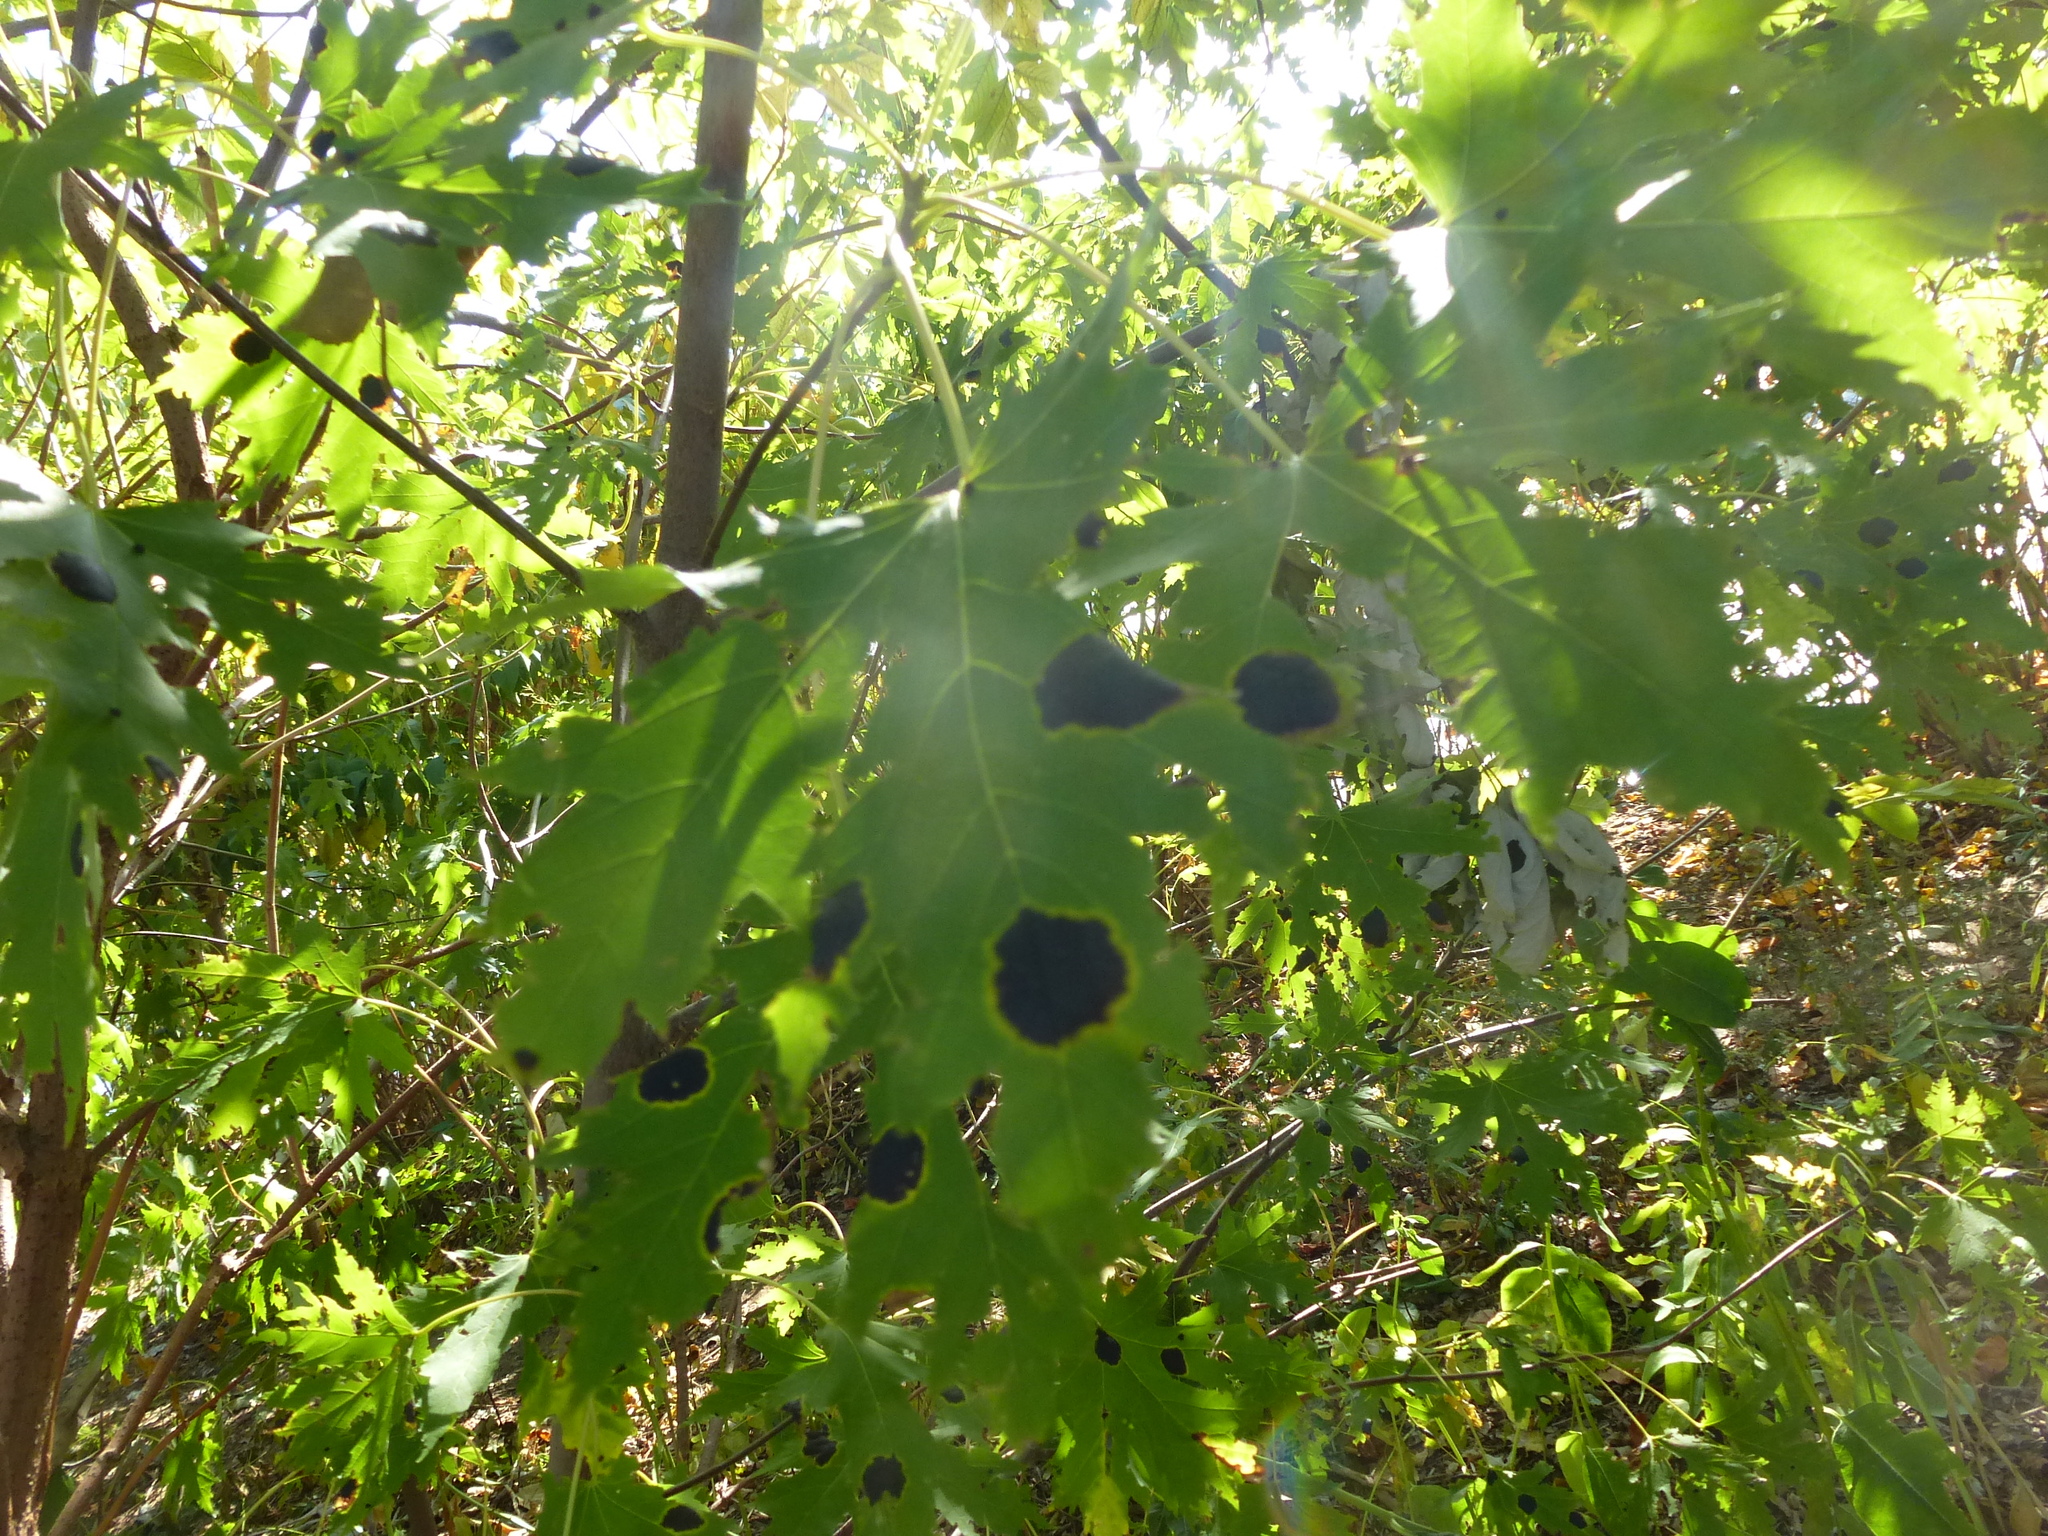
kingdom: Fungi
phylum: Ascomycota
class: Leotiomycetes
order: Rhytismatales
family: Rhytismataceae
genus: Rhytisma
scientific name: Rhytisma acerinum
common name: European tar spot
